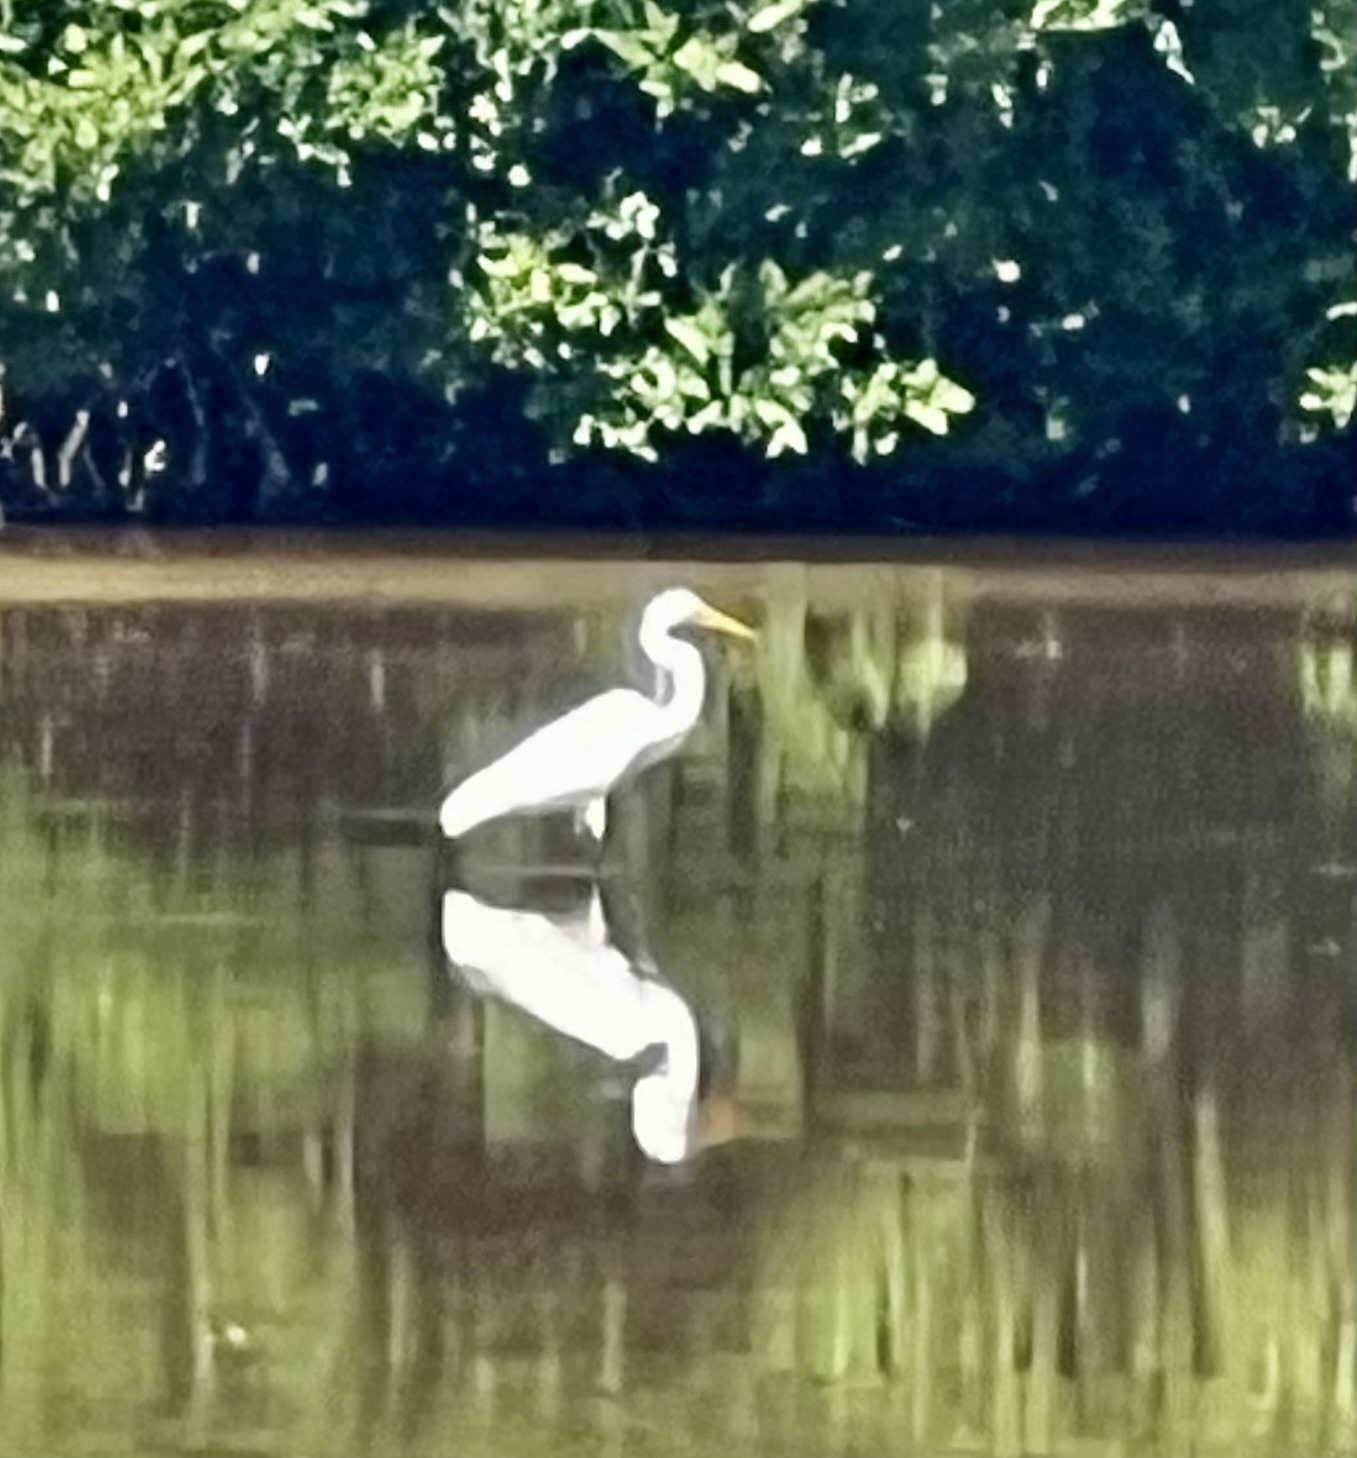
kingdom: Animalia
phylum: Chordata
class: Aves
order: Pelecaniformes
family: Ardeidae
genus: Ardea
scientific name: Ardea alba
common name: Great egret
